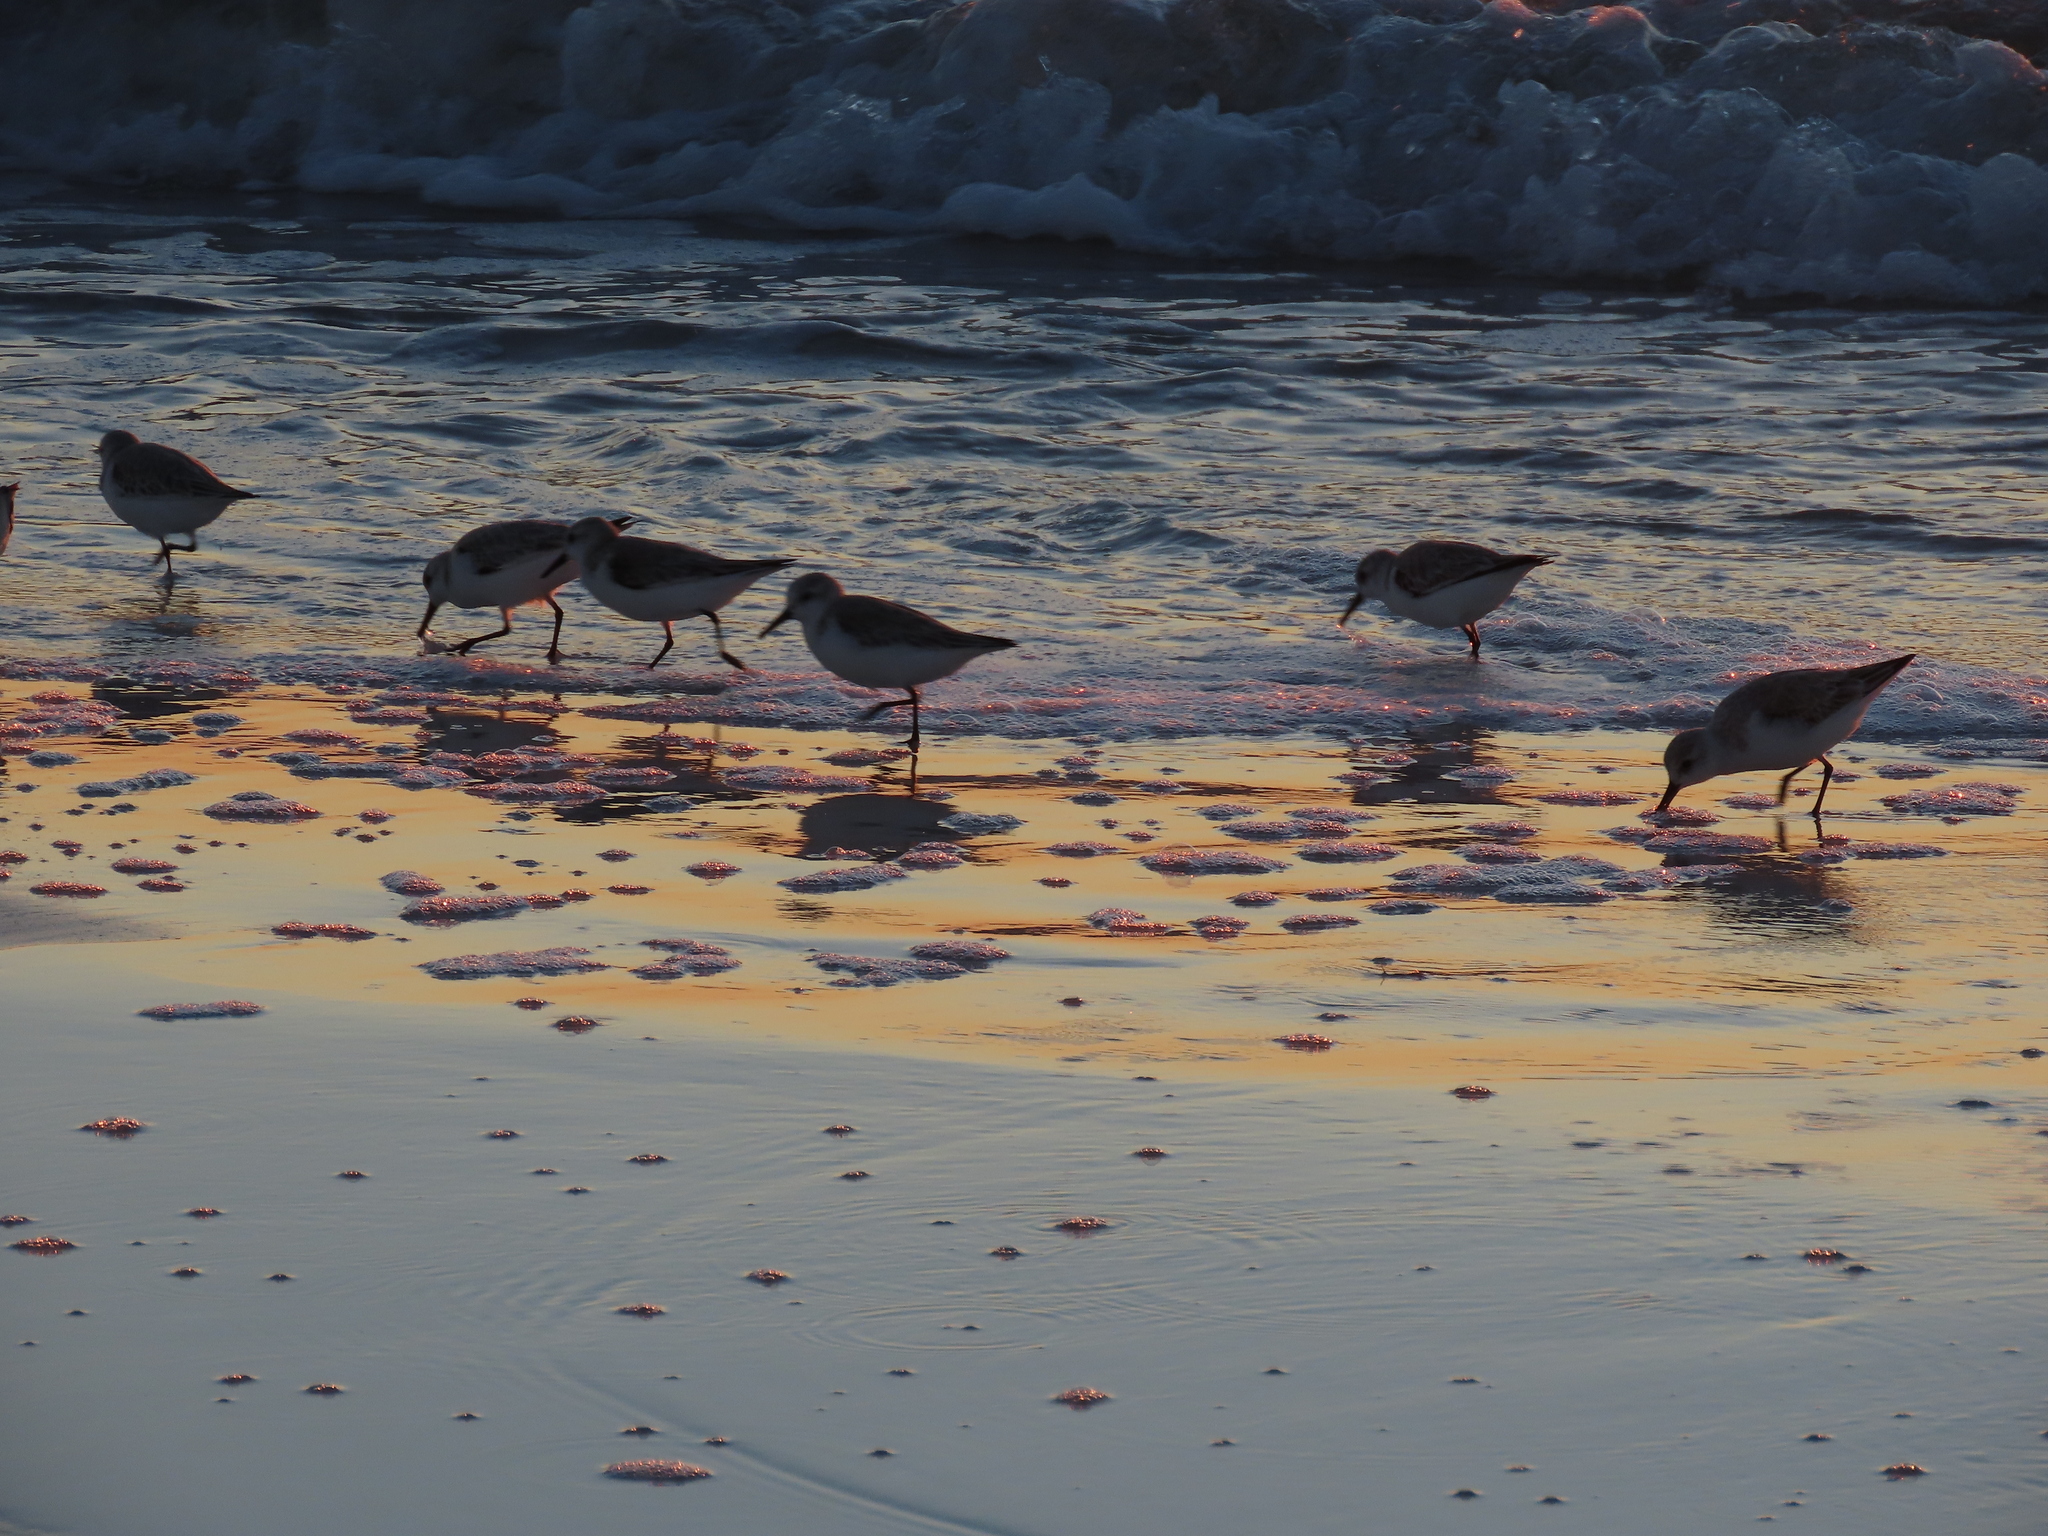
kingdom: Animalia
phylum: Chordata
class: Aves
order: Charadriiformes
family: Scolopacidae
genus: Calidris
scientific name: Calidris alba
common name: Sanderling
